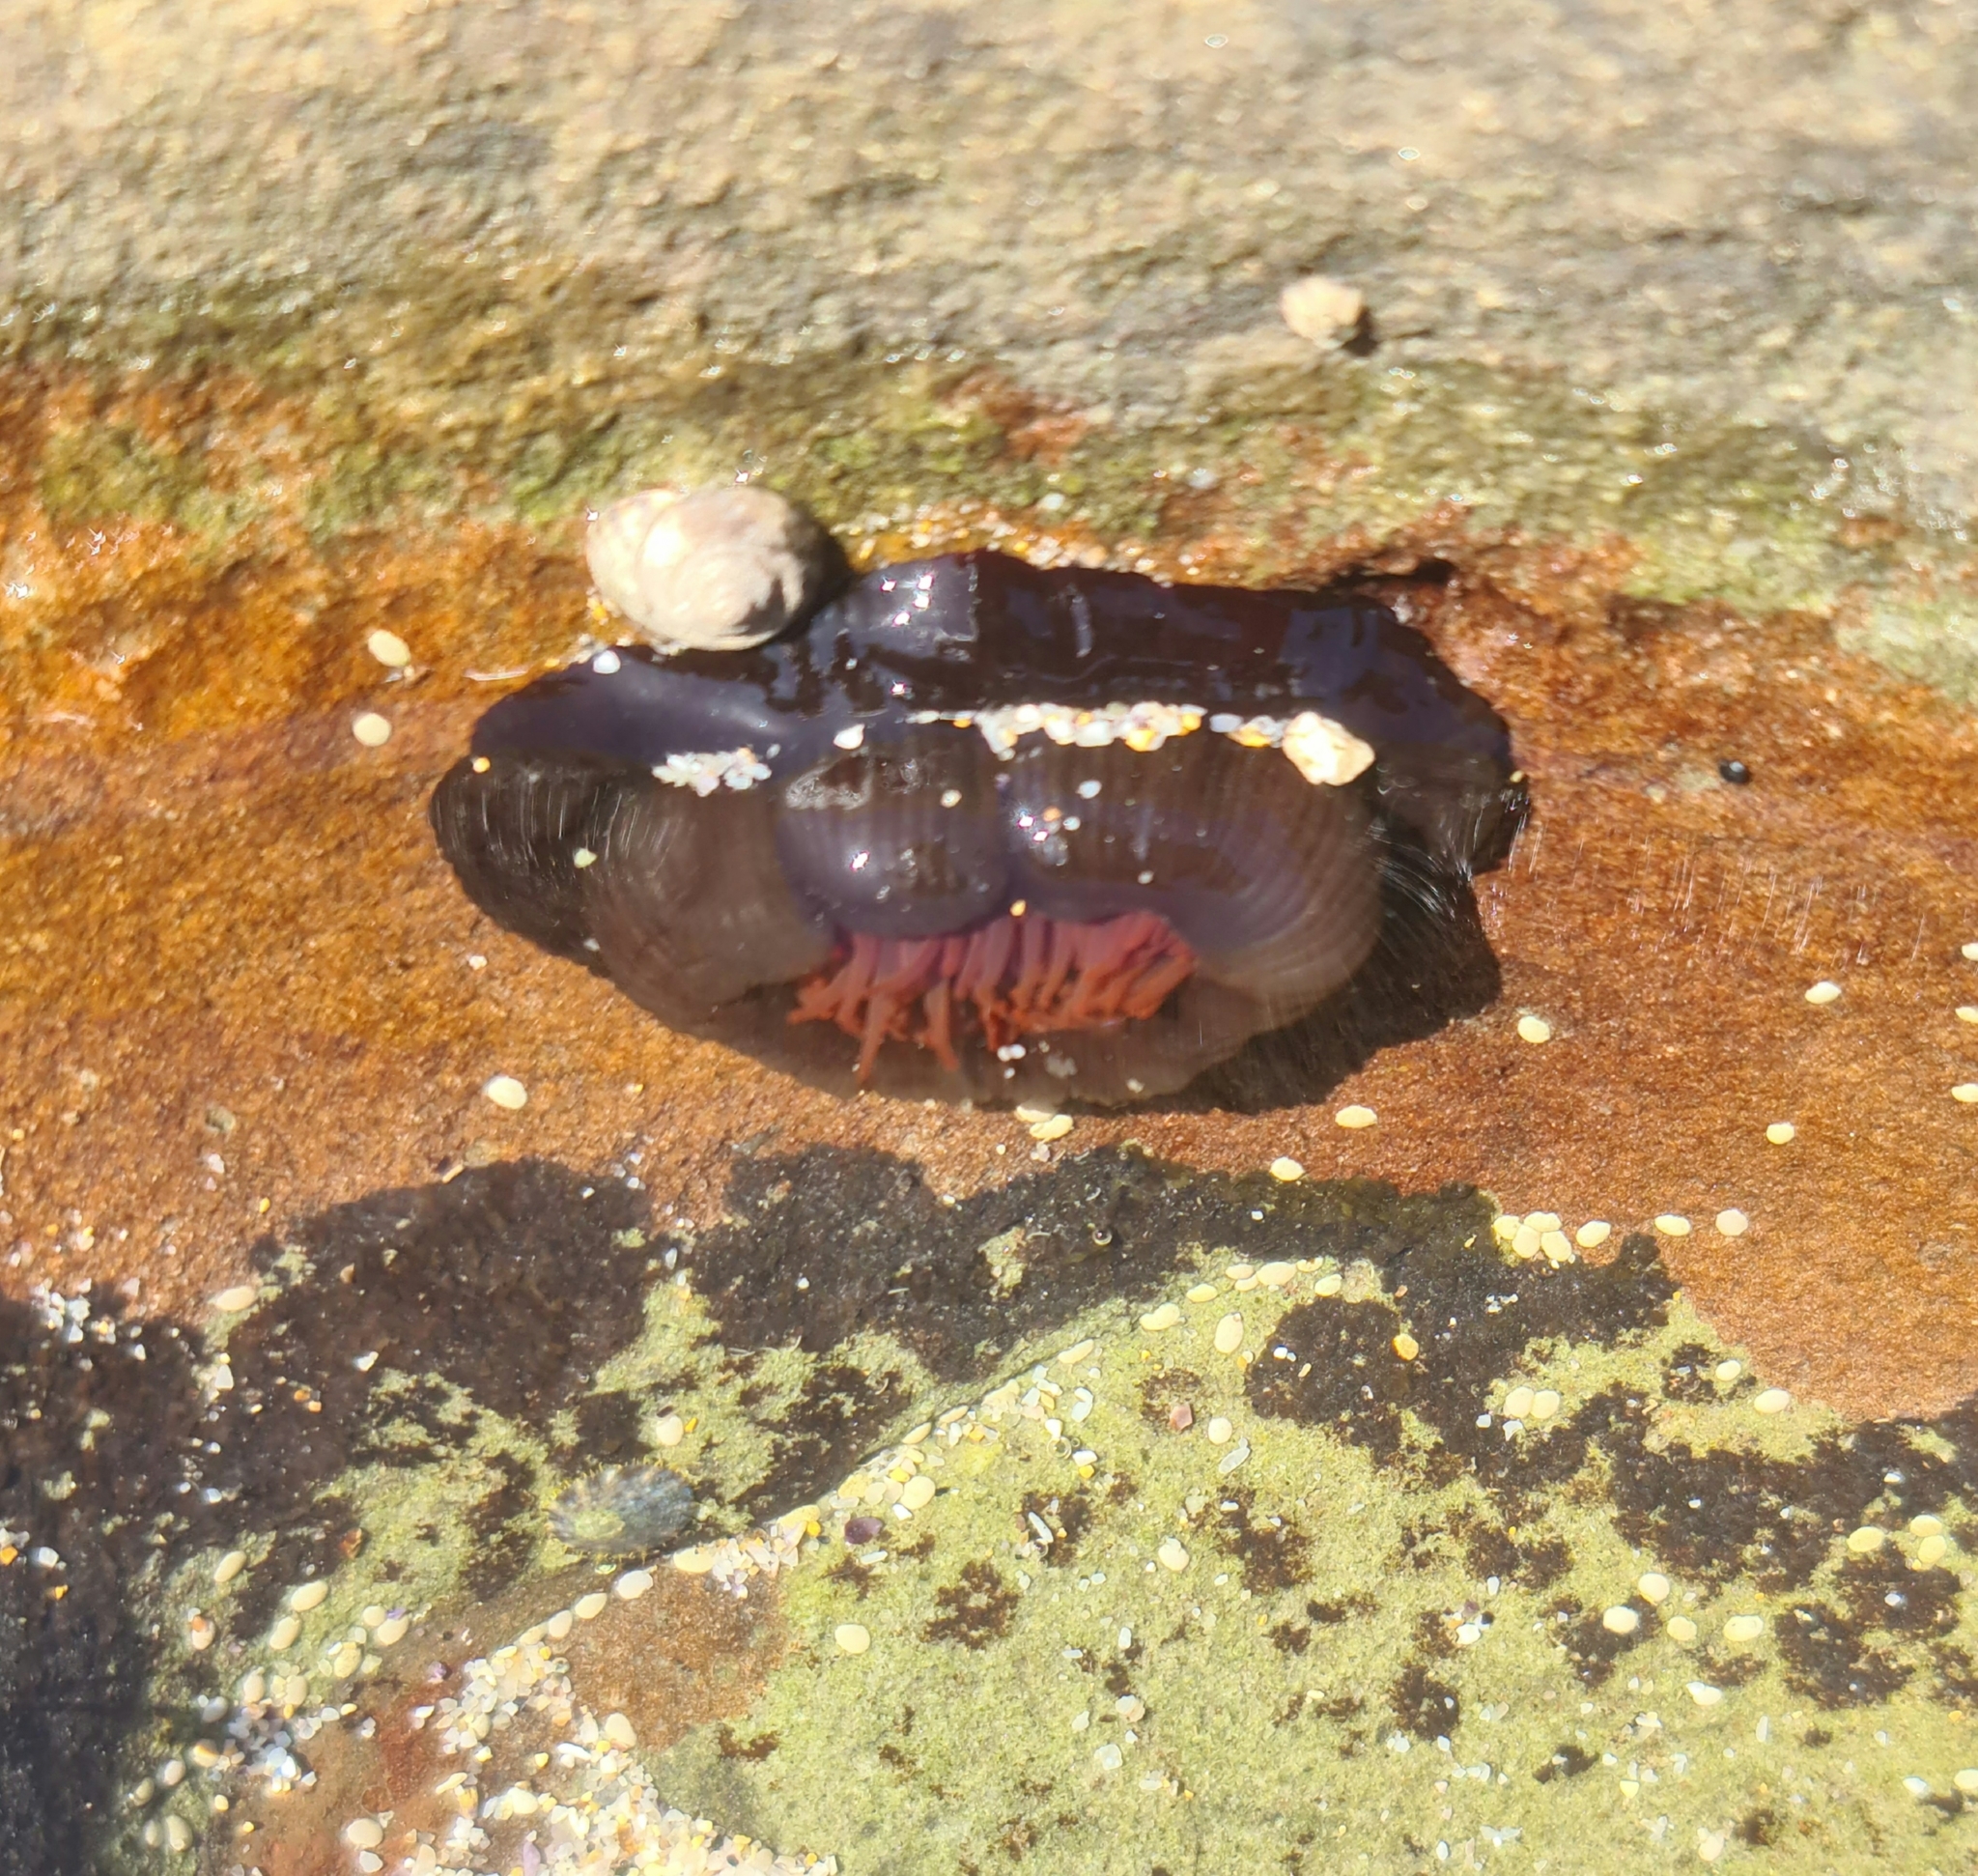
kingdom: Animalia
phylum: Cnidaria
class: Anthozoa
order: Actiniaria
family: Actiniidae
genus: Actinia
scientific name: Actinia tenebrosa
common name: Waratah anemone
